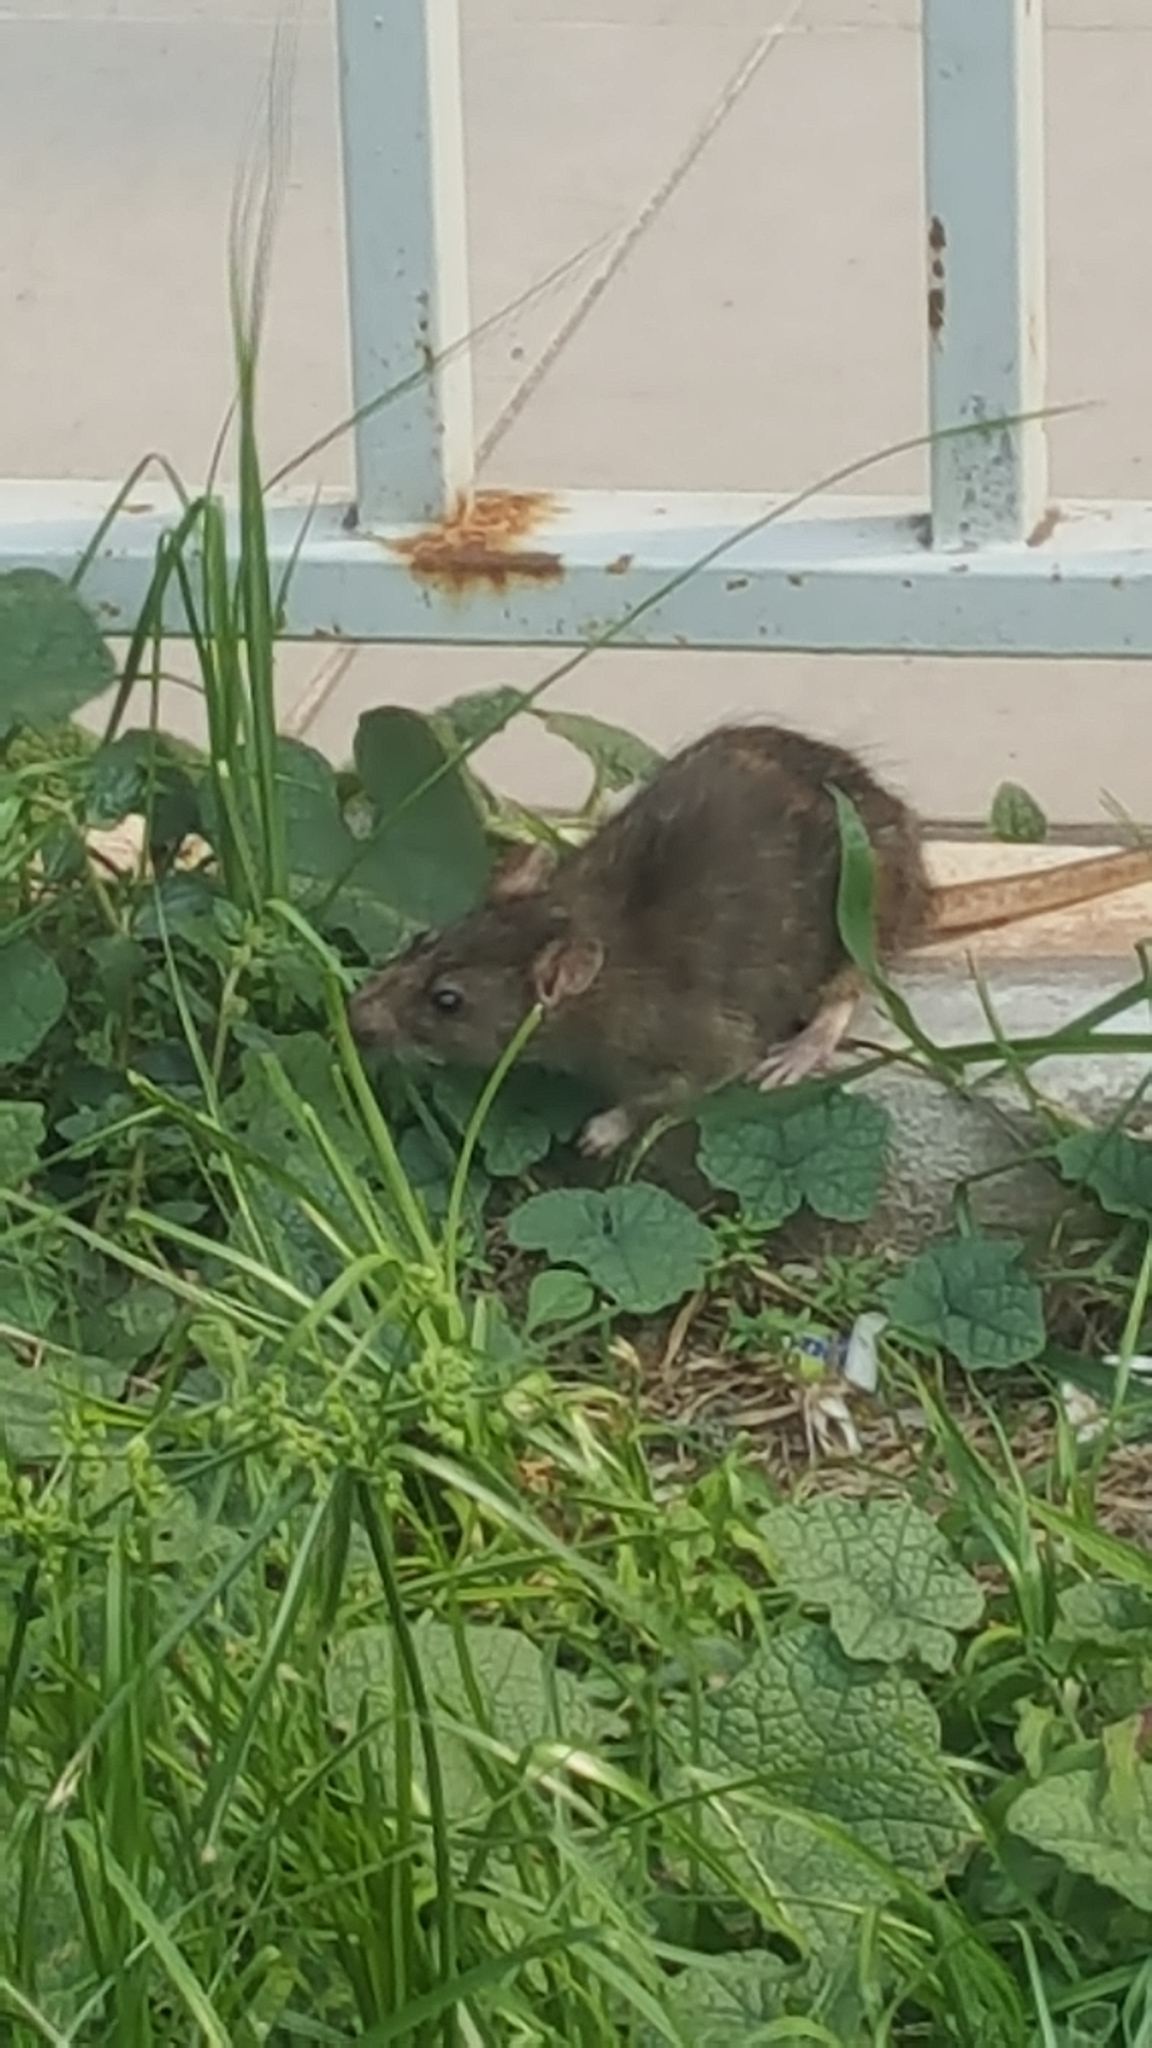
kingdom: Animalia
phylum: Chordata
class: Mammalia
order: Rodentia
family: Muridae
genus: Rattus
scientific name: Rattus norvegicus
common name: Brown rat
